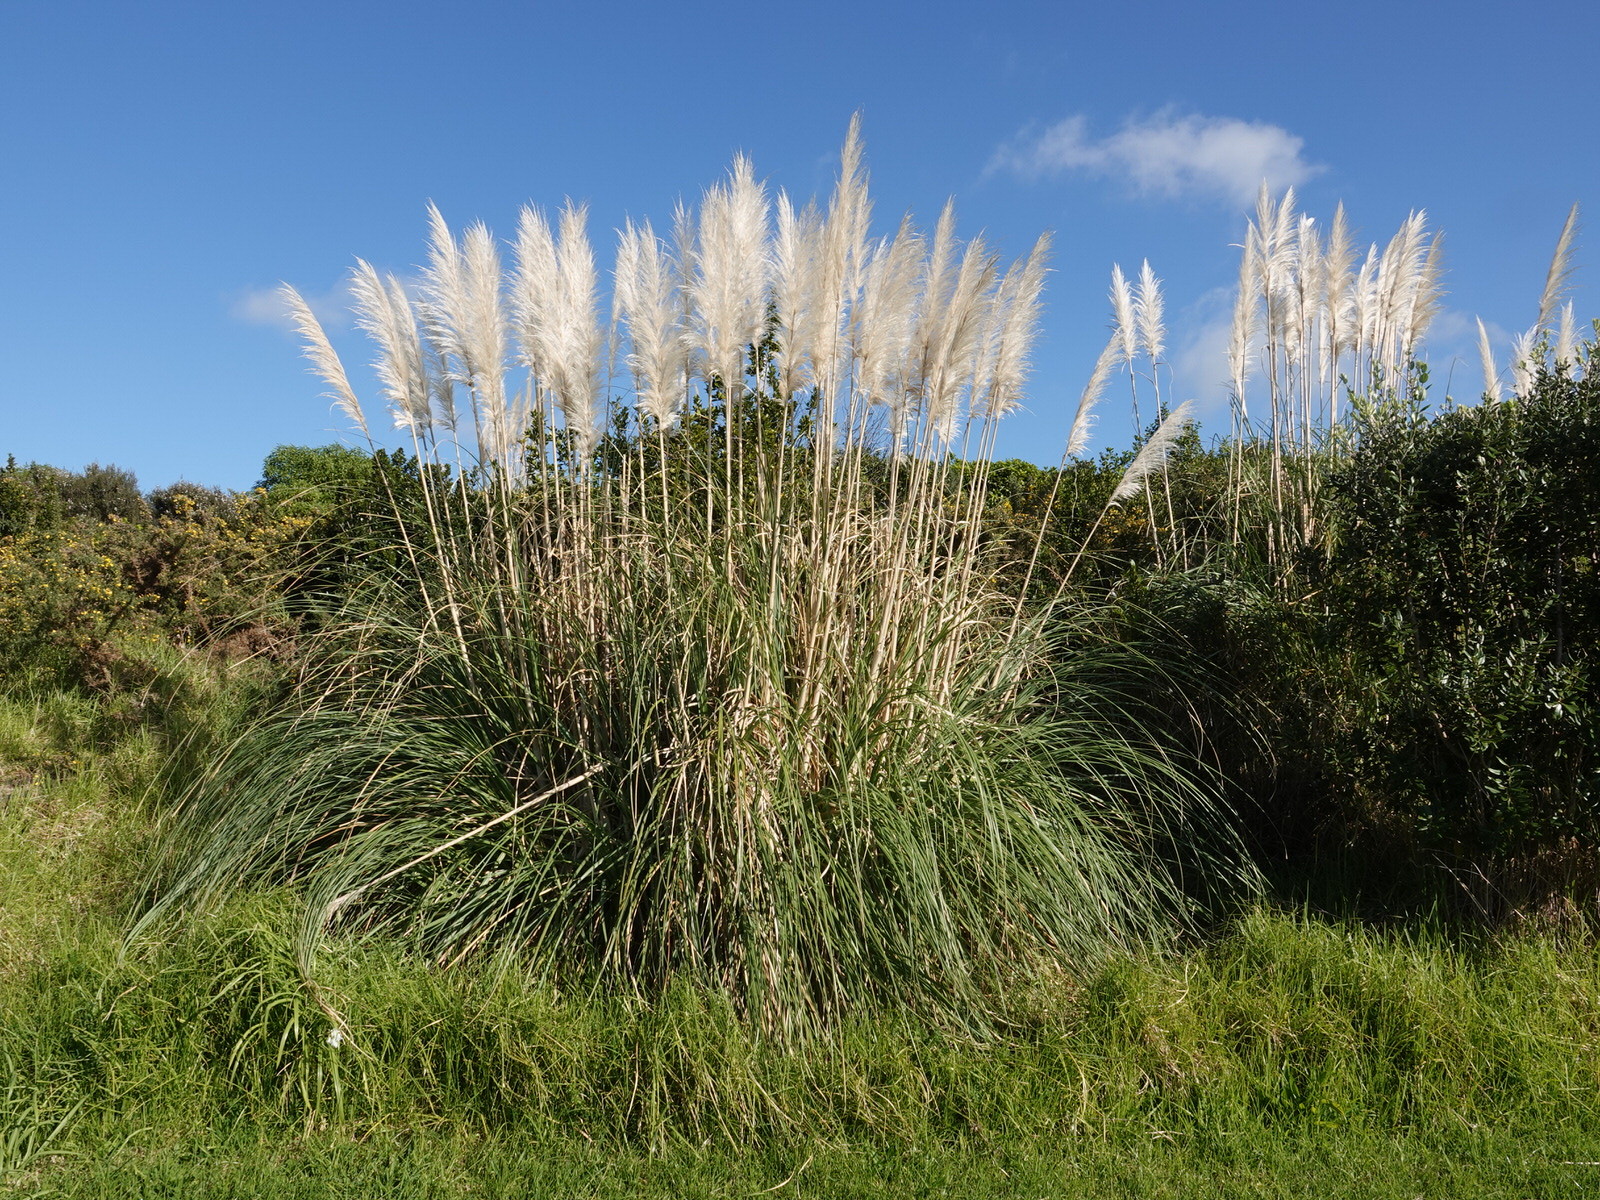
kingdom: Plantae
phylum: Tracheophyta
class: Liliopsida
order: Poales
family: Poaceae
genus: Cortaderia
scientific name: Cortaderia selloana
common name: Uruguayan pampas grass
